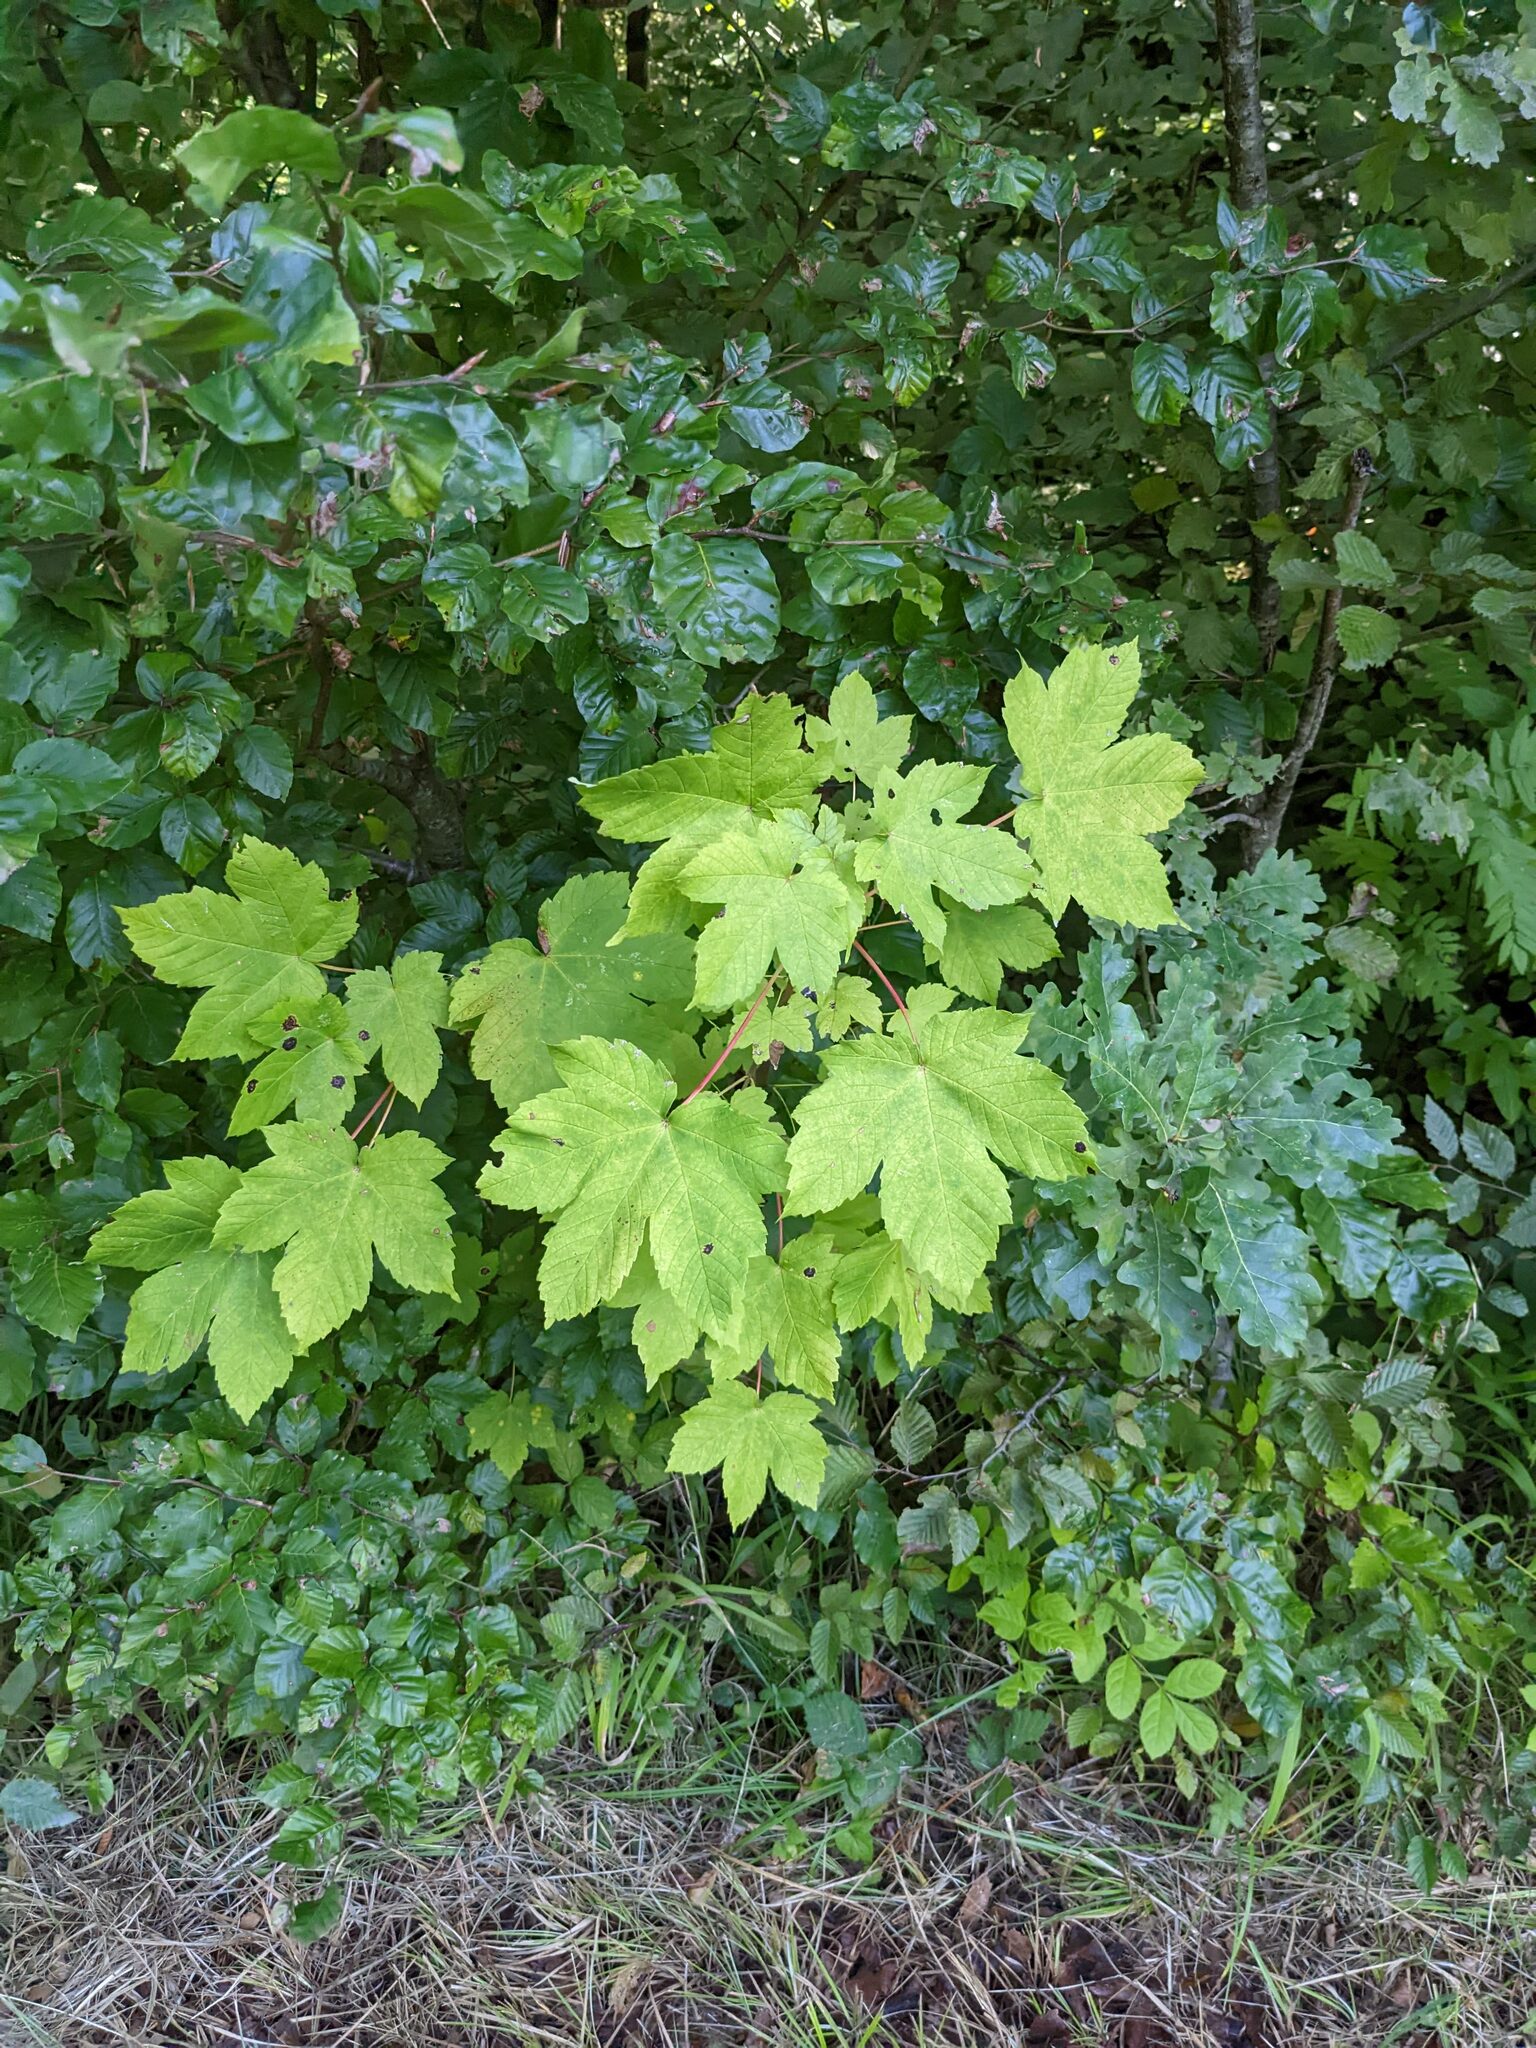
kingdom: Plantae
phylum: Tracheophyta
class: Magnoliopsida
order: Sapindales
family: Sapindaceae
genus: Acer
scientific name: Acer pseudoplatanus
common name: Sycamore
